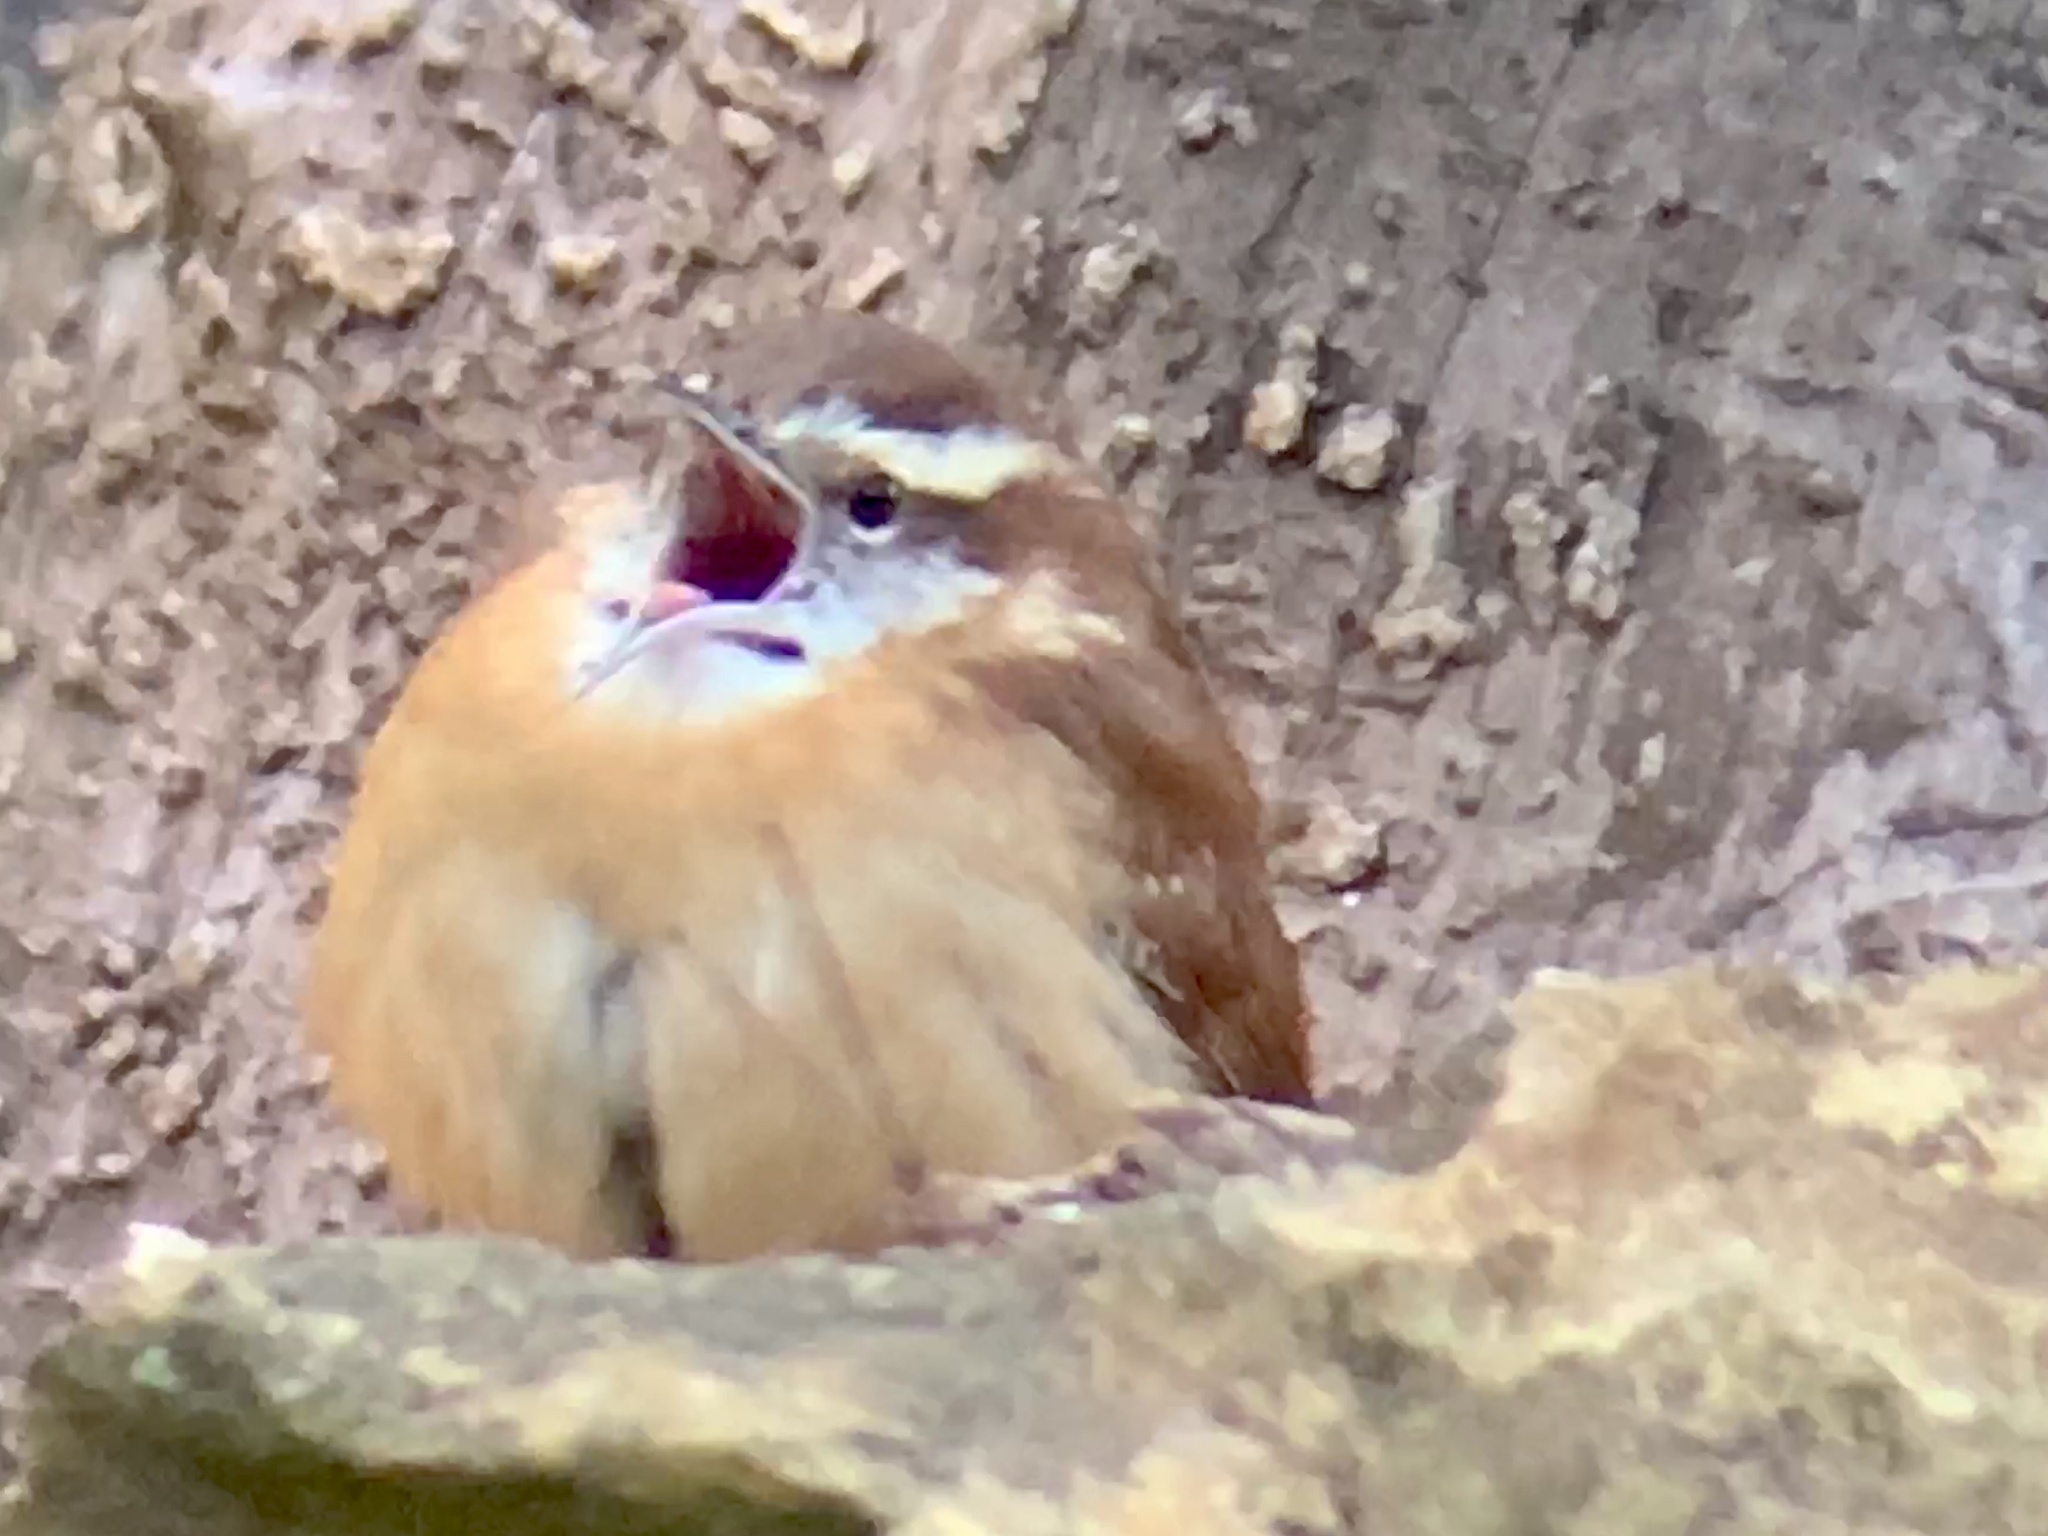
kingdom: Animalia
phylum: Chordata
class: Aves
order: Passeriformes
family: Troglodytidae
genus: Thryothorus
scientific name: Thryothorus ludovicianus
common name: Carolina wren
